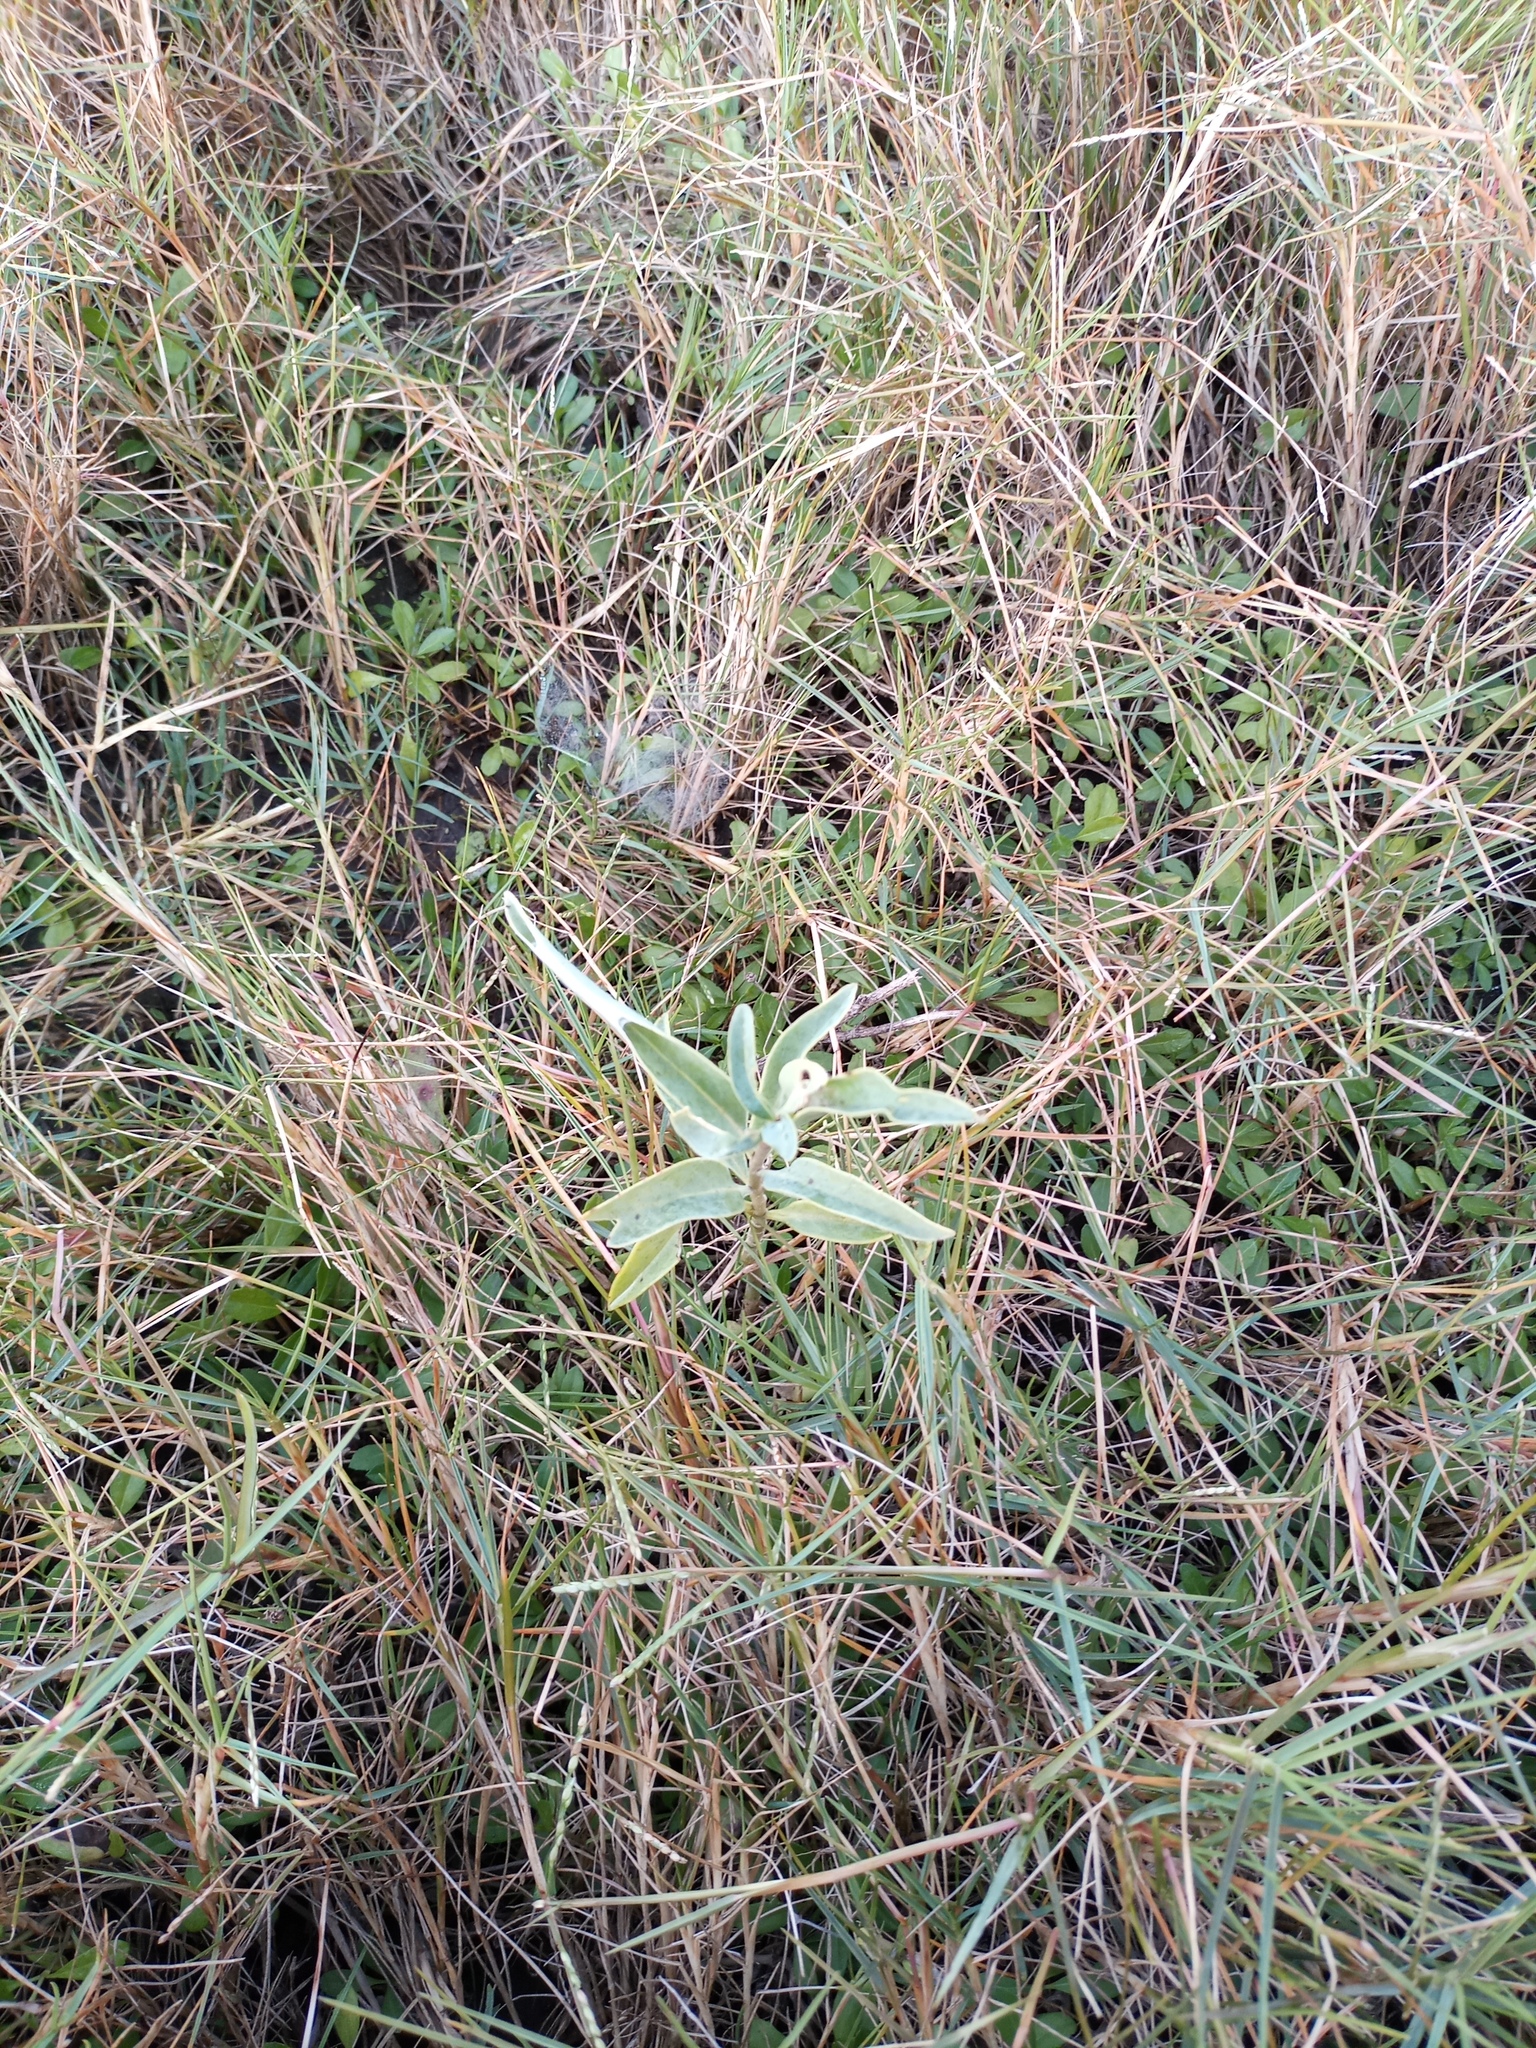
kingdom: Plantae
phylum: Tracheophyta
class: Magnoliopsida
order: Solanales
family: Solanaceae
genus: Solanum
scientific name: Solanum glaucophyllum
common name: Waxyleaf nightshade
